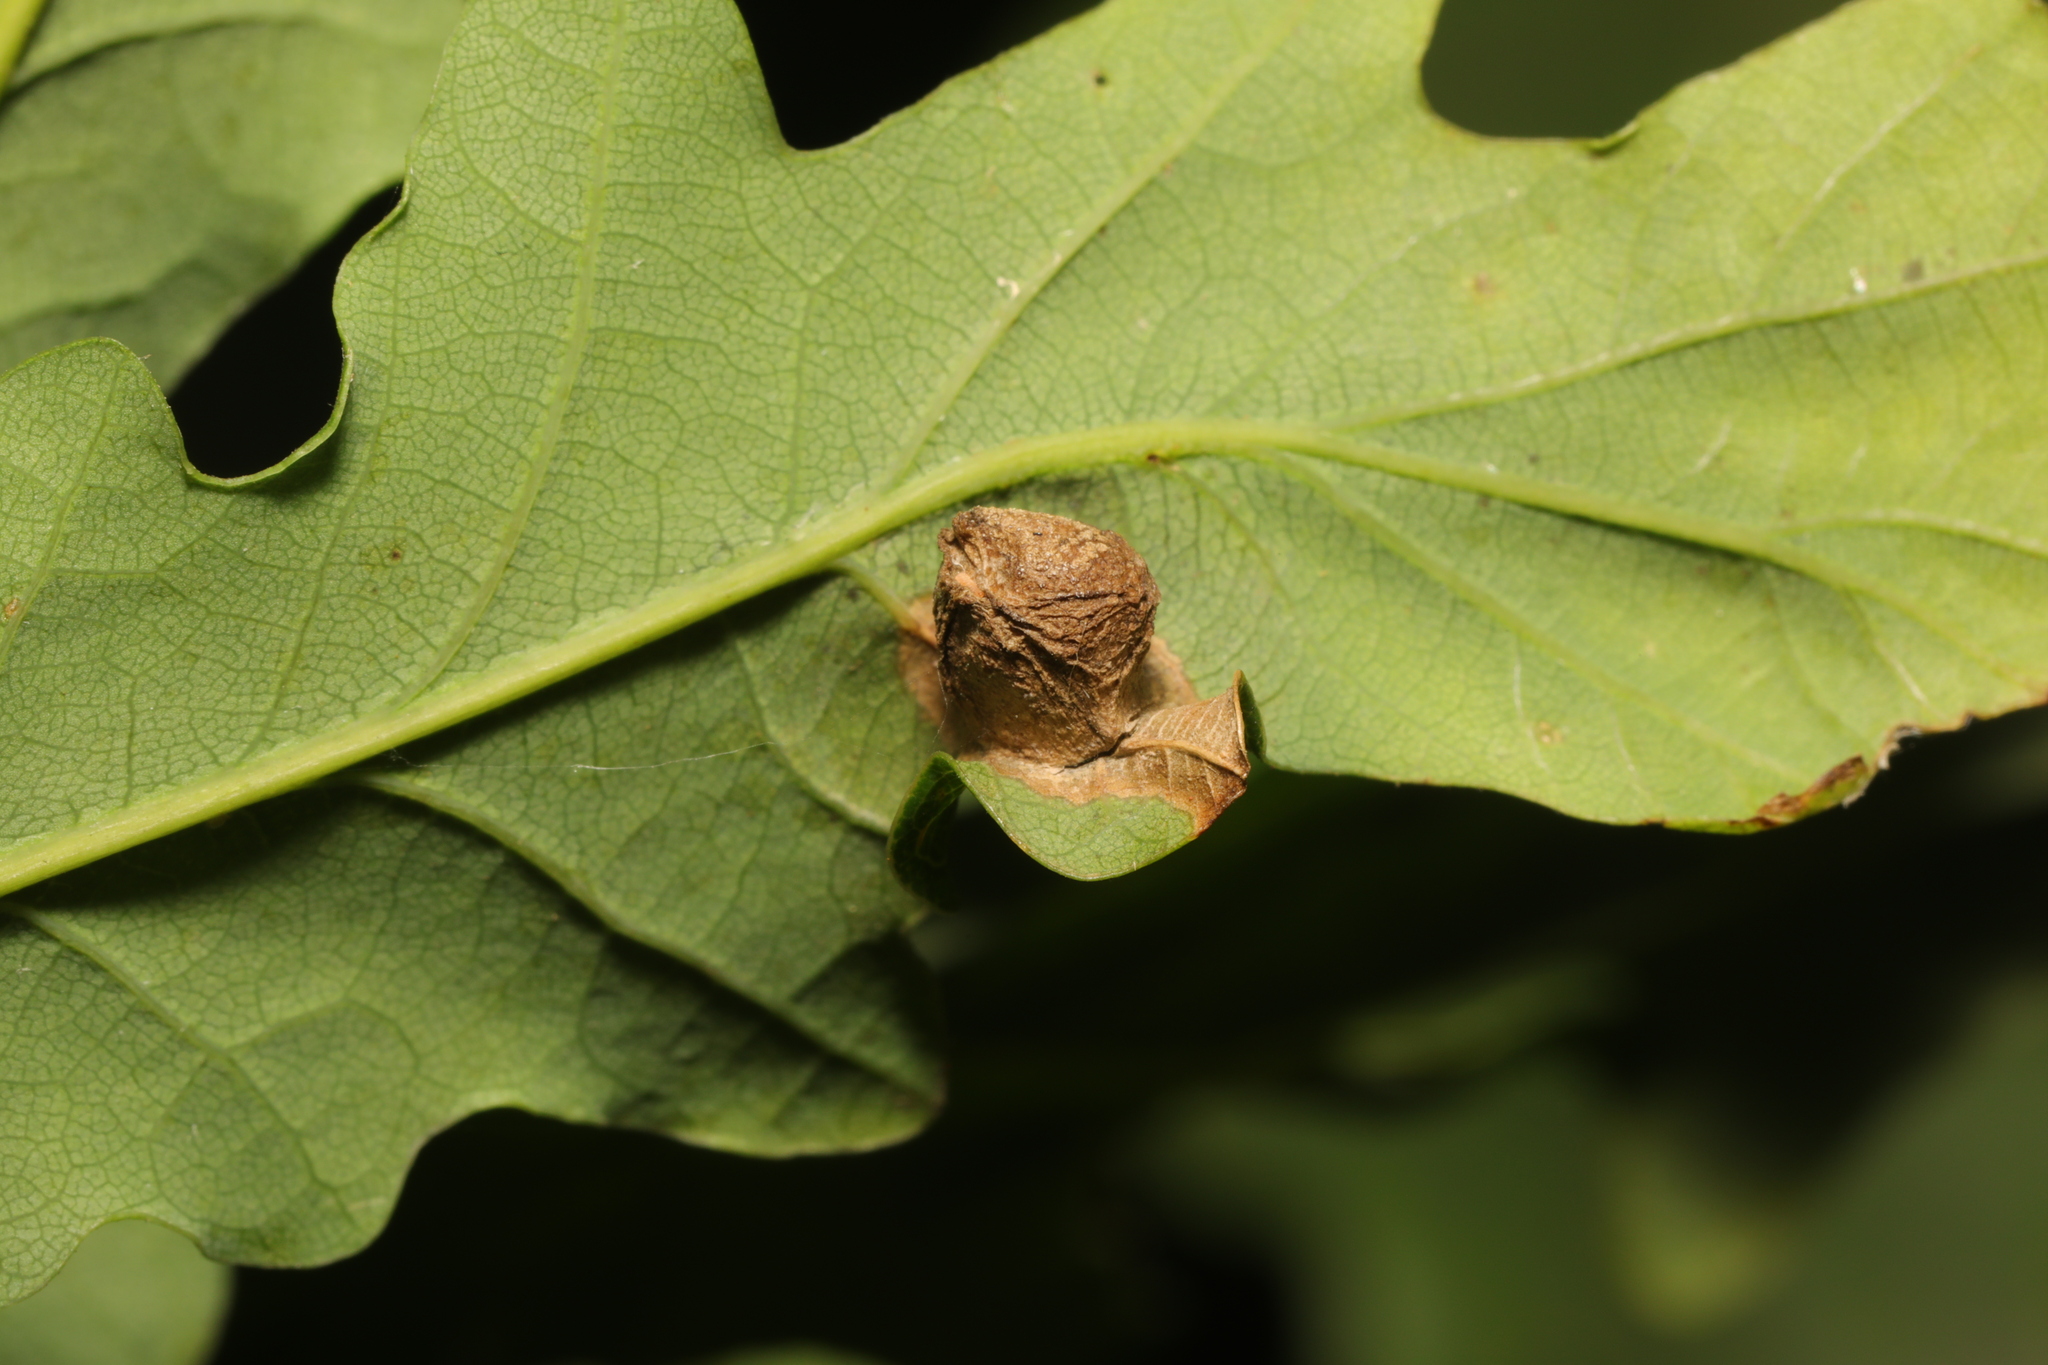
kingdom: Animalia
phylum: Arthropoda
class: Insecta
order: Hymenoptera
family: Cynipidae
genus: Neuroterus
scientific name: Neuroterus quercusbaccarum
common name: Common spangle gall
